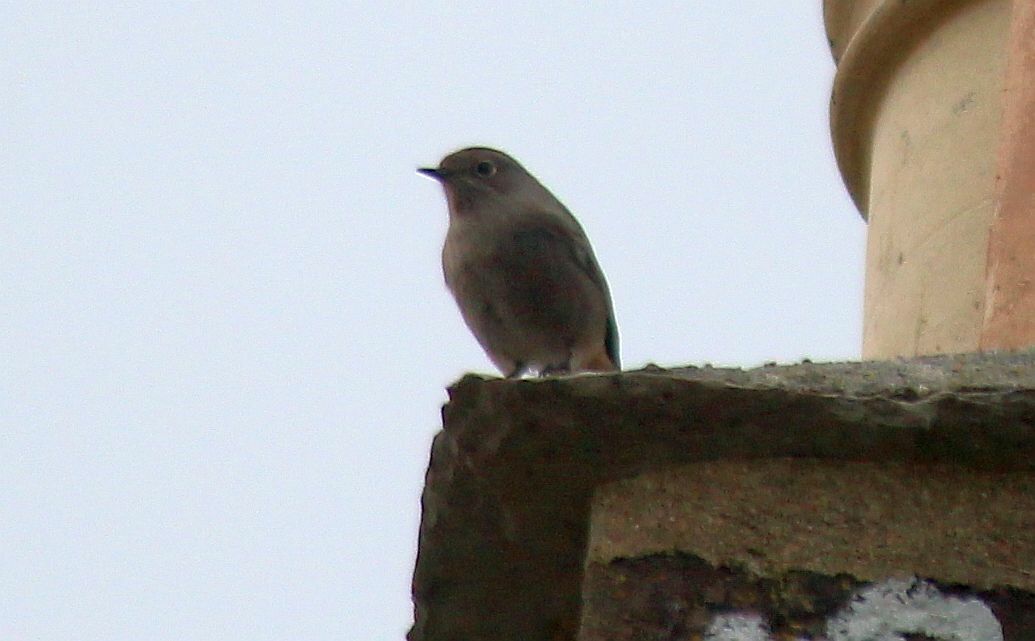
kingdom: Animalia
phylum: Chordata
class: Aves
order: Passeriformes
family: Muscicapidae
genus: Phoenicurus
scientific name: Phoenicurus ochruros
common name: Black redstart
